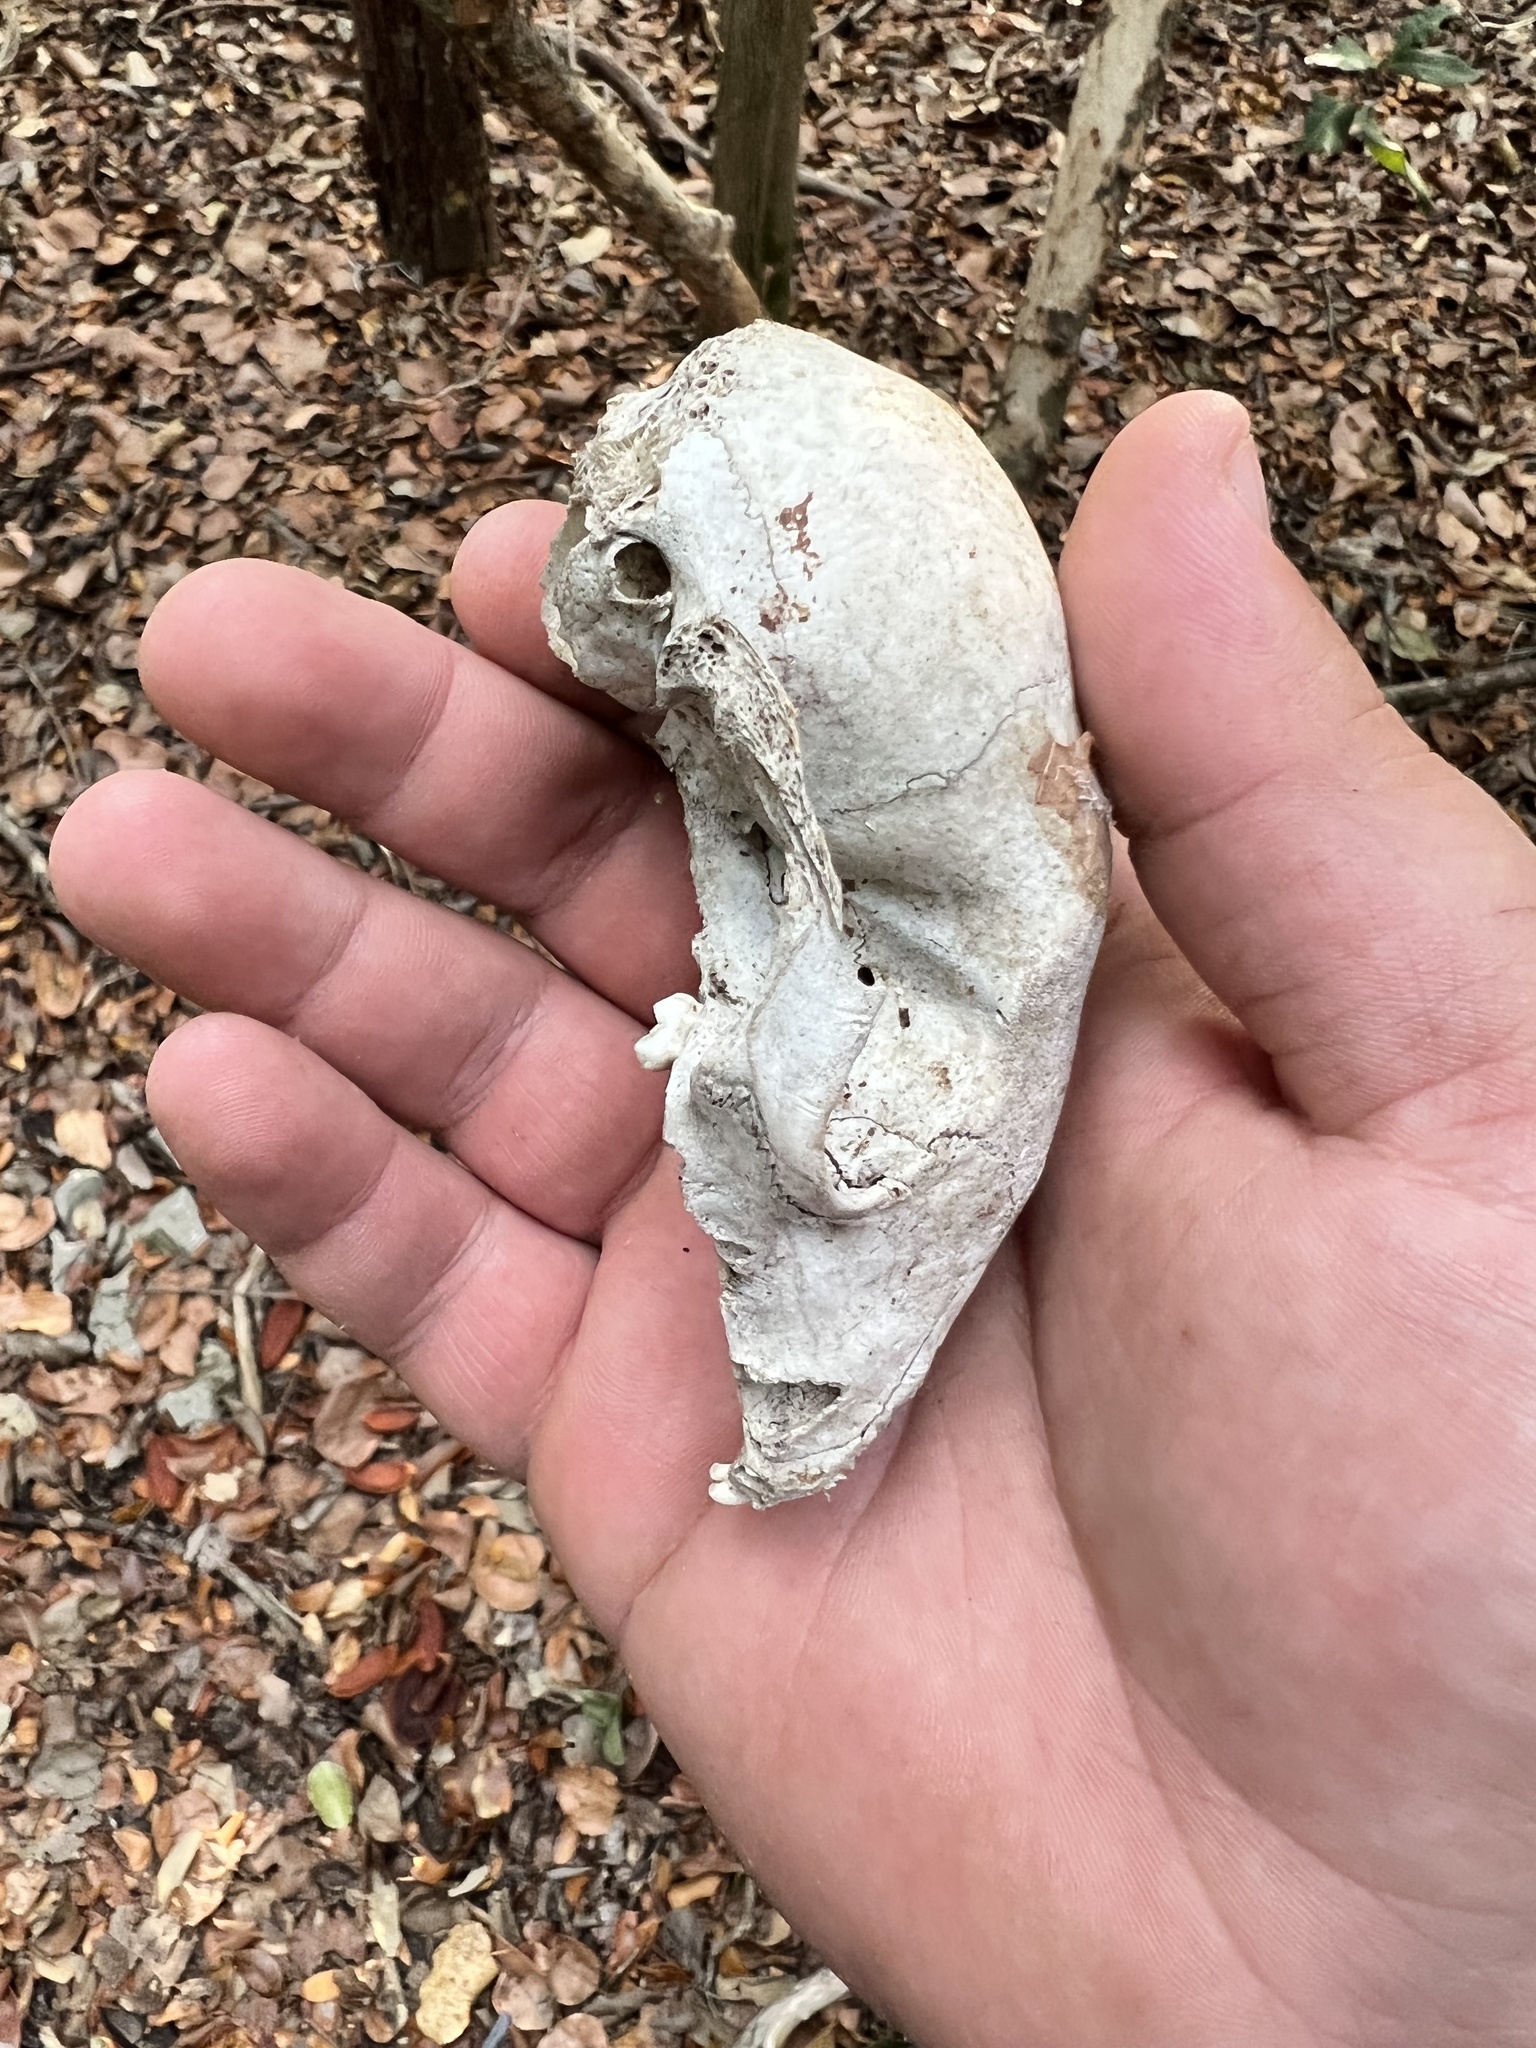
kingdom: Animalia
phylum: Chordata
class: Mammalia
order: Carnivora
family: Procyonidae
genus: Procyon
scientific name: Procyon lotor
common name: Raccoon
